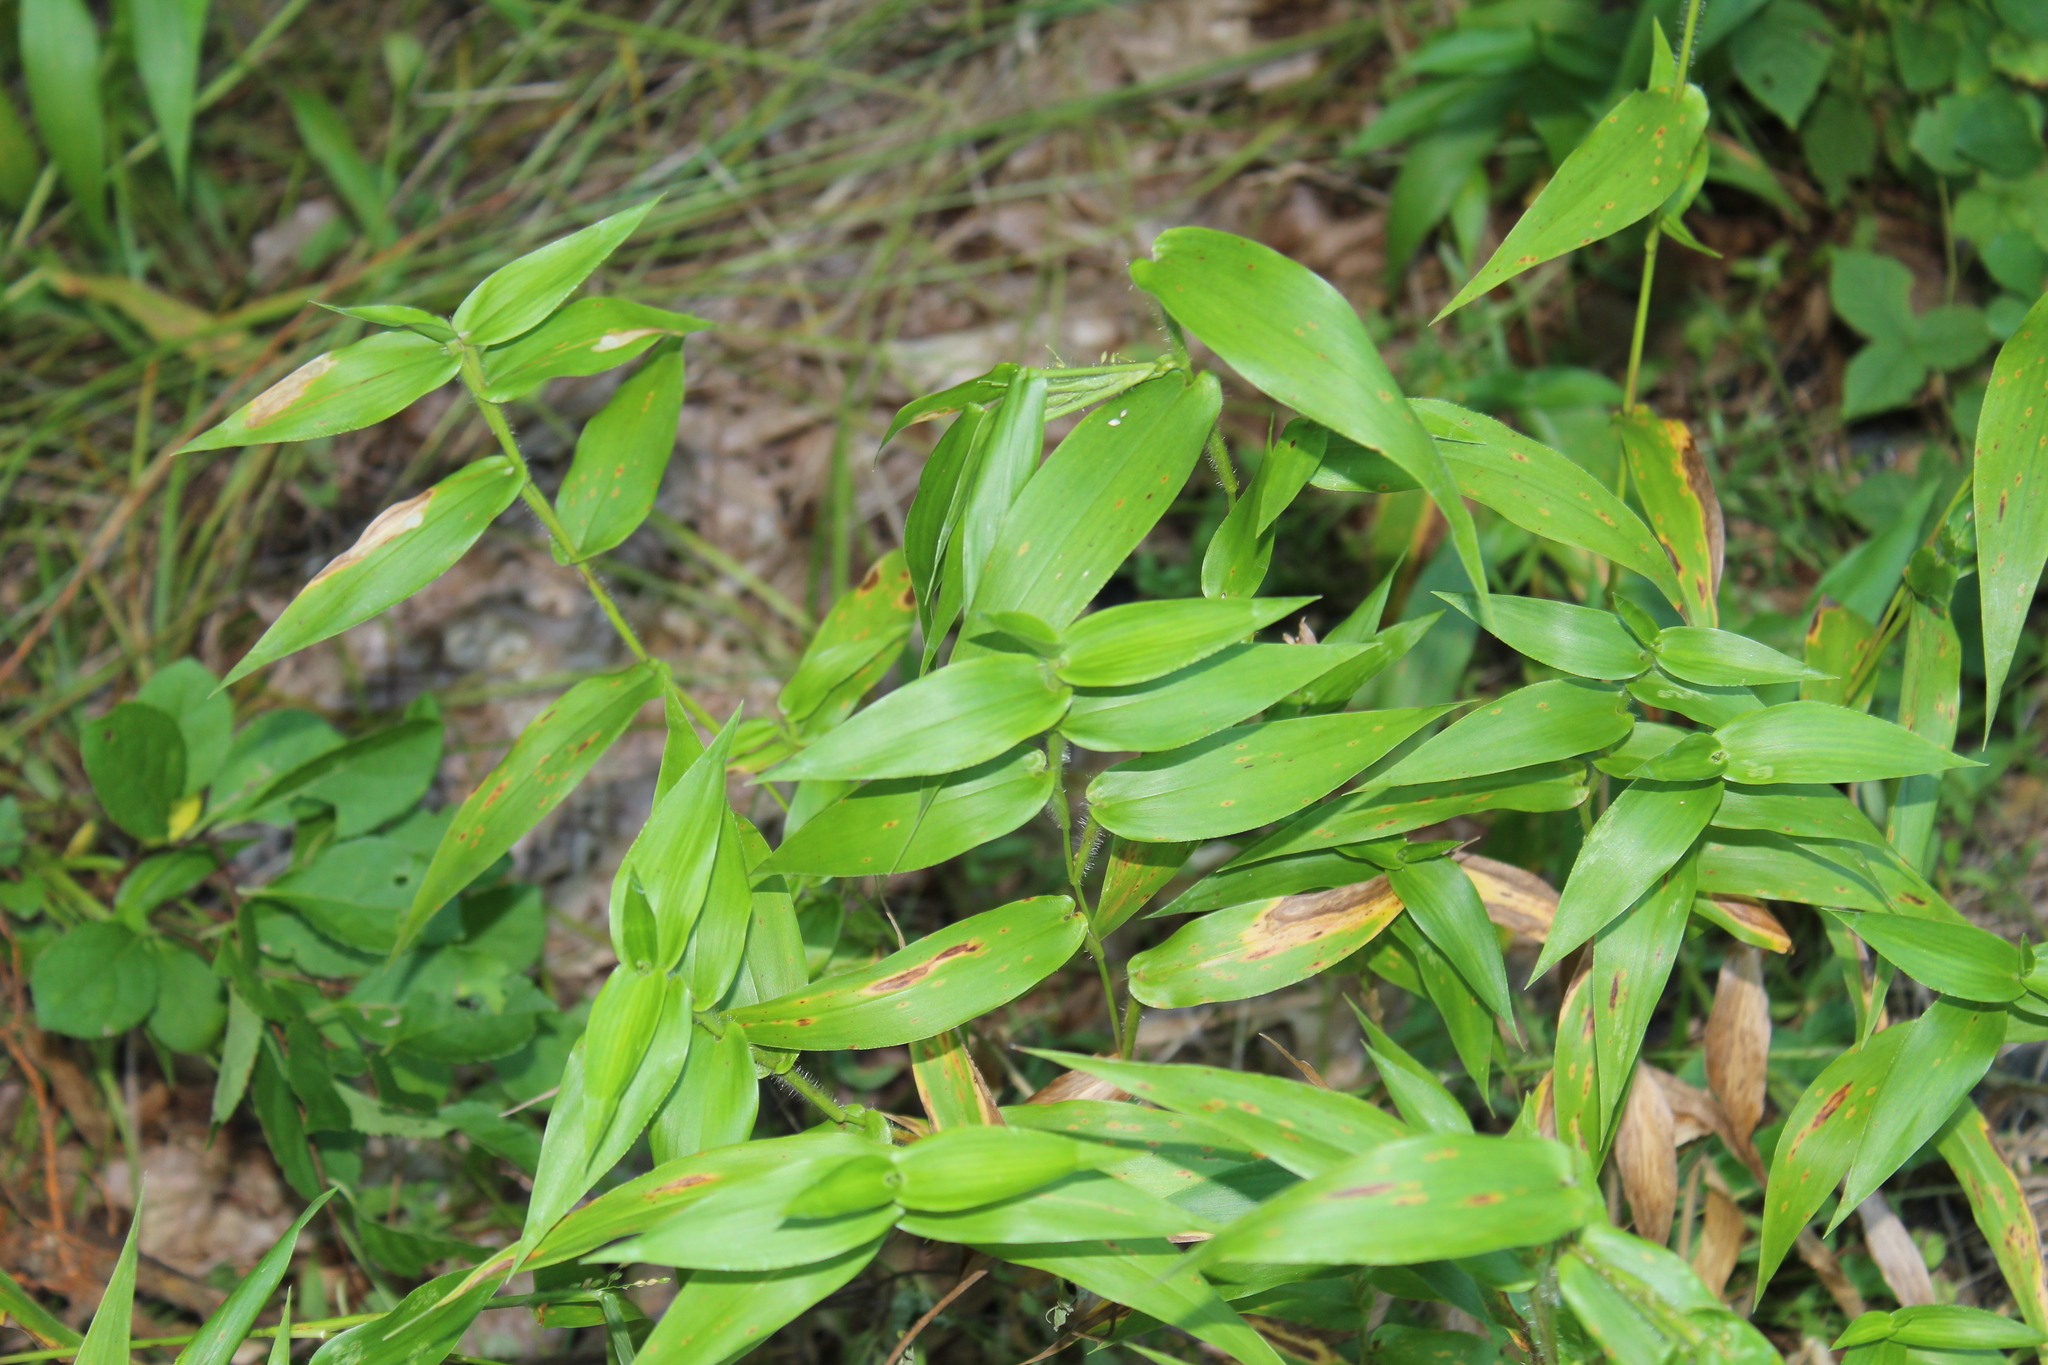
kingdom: Animalia
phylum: Arthropoda
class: Insecta
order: Lepidoptera
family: Heliodinidae
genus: Cycloplasis
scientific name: Cycloplasis panicifoliella
